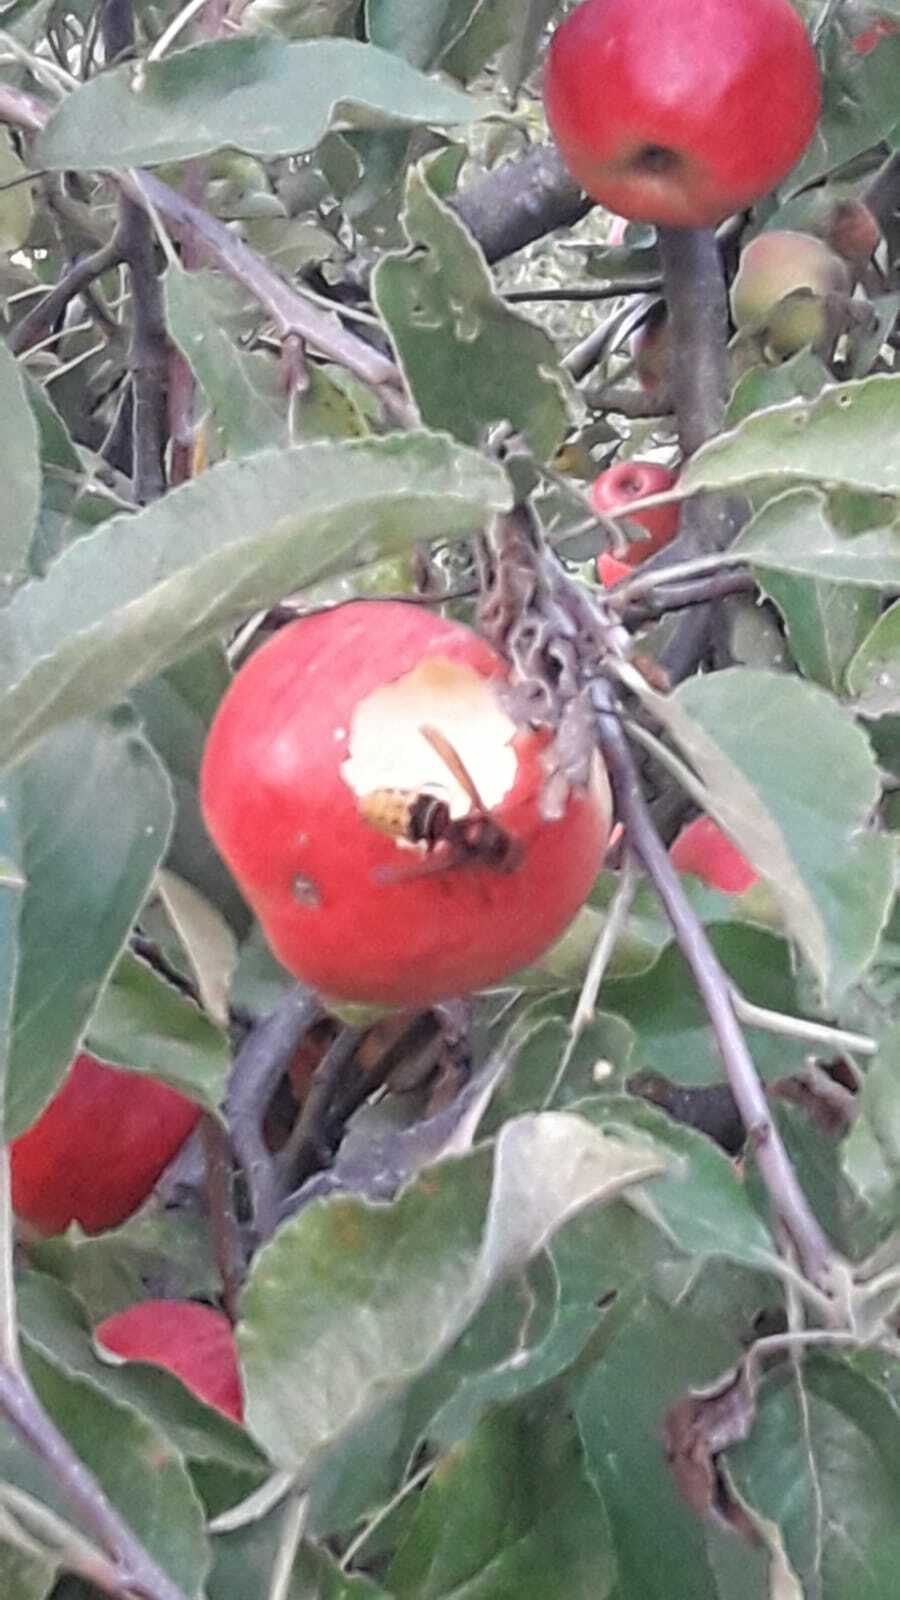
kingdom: Animalia
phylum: Arthropoda
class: Insecta
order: Hymenoptera
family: Vespidae
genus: Vespa
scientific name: Vespa crabro
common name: Hornet
